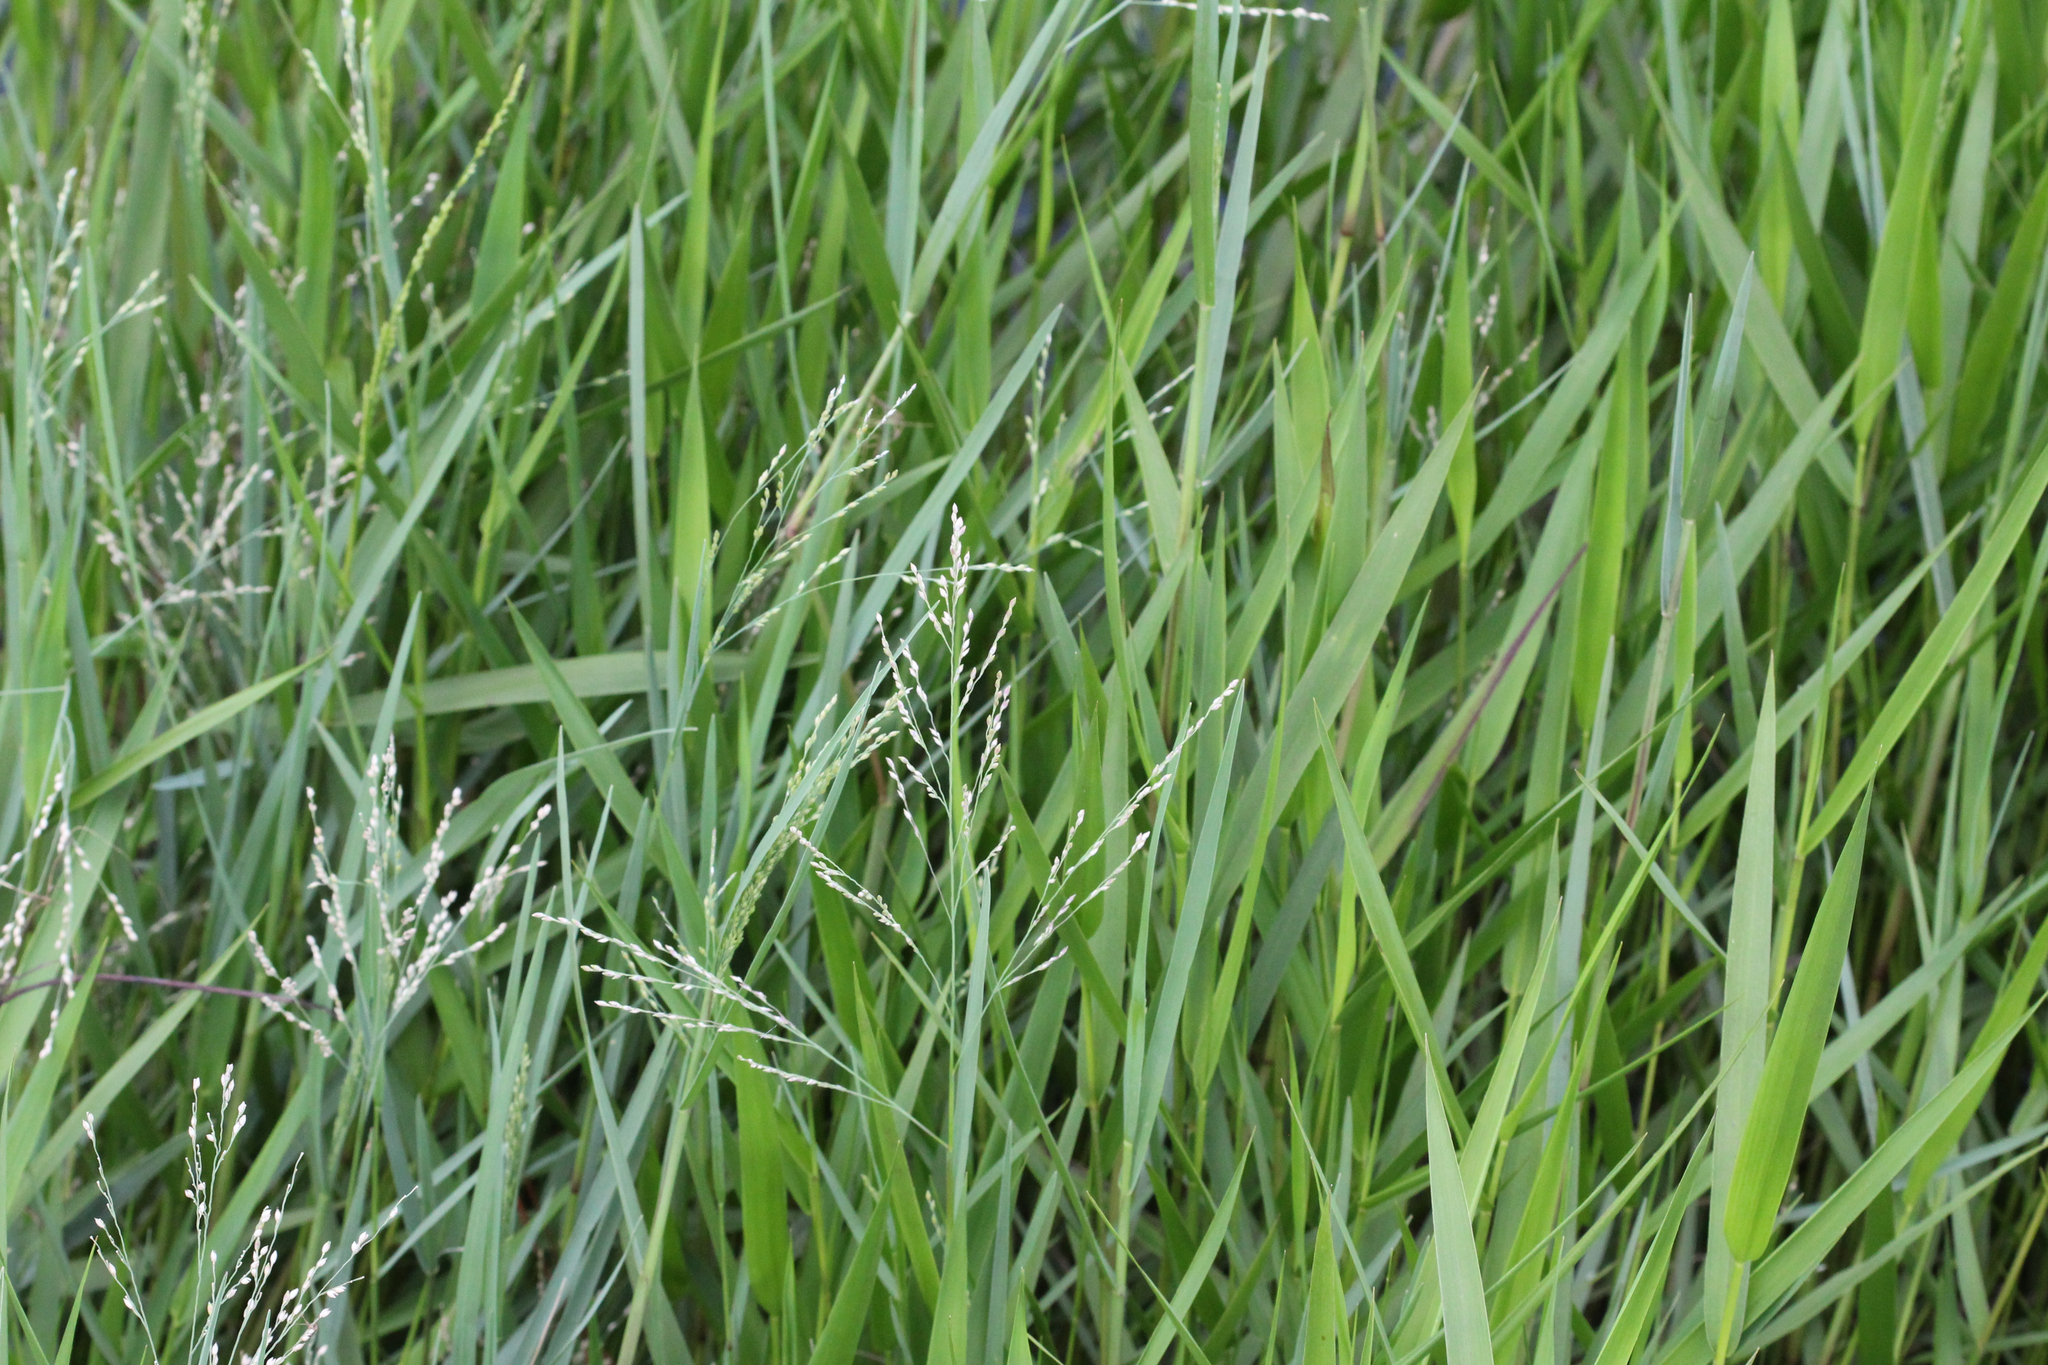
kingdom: Plantae
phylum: Tracheophyta
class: Liliopsida
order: Poales
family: Poaceae
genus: Panicum
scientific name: Panicum repens
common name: Torpedo grass
